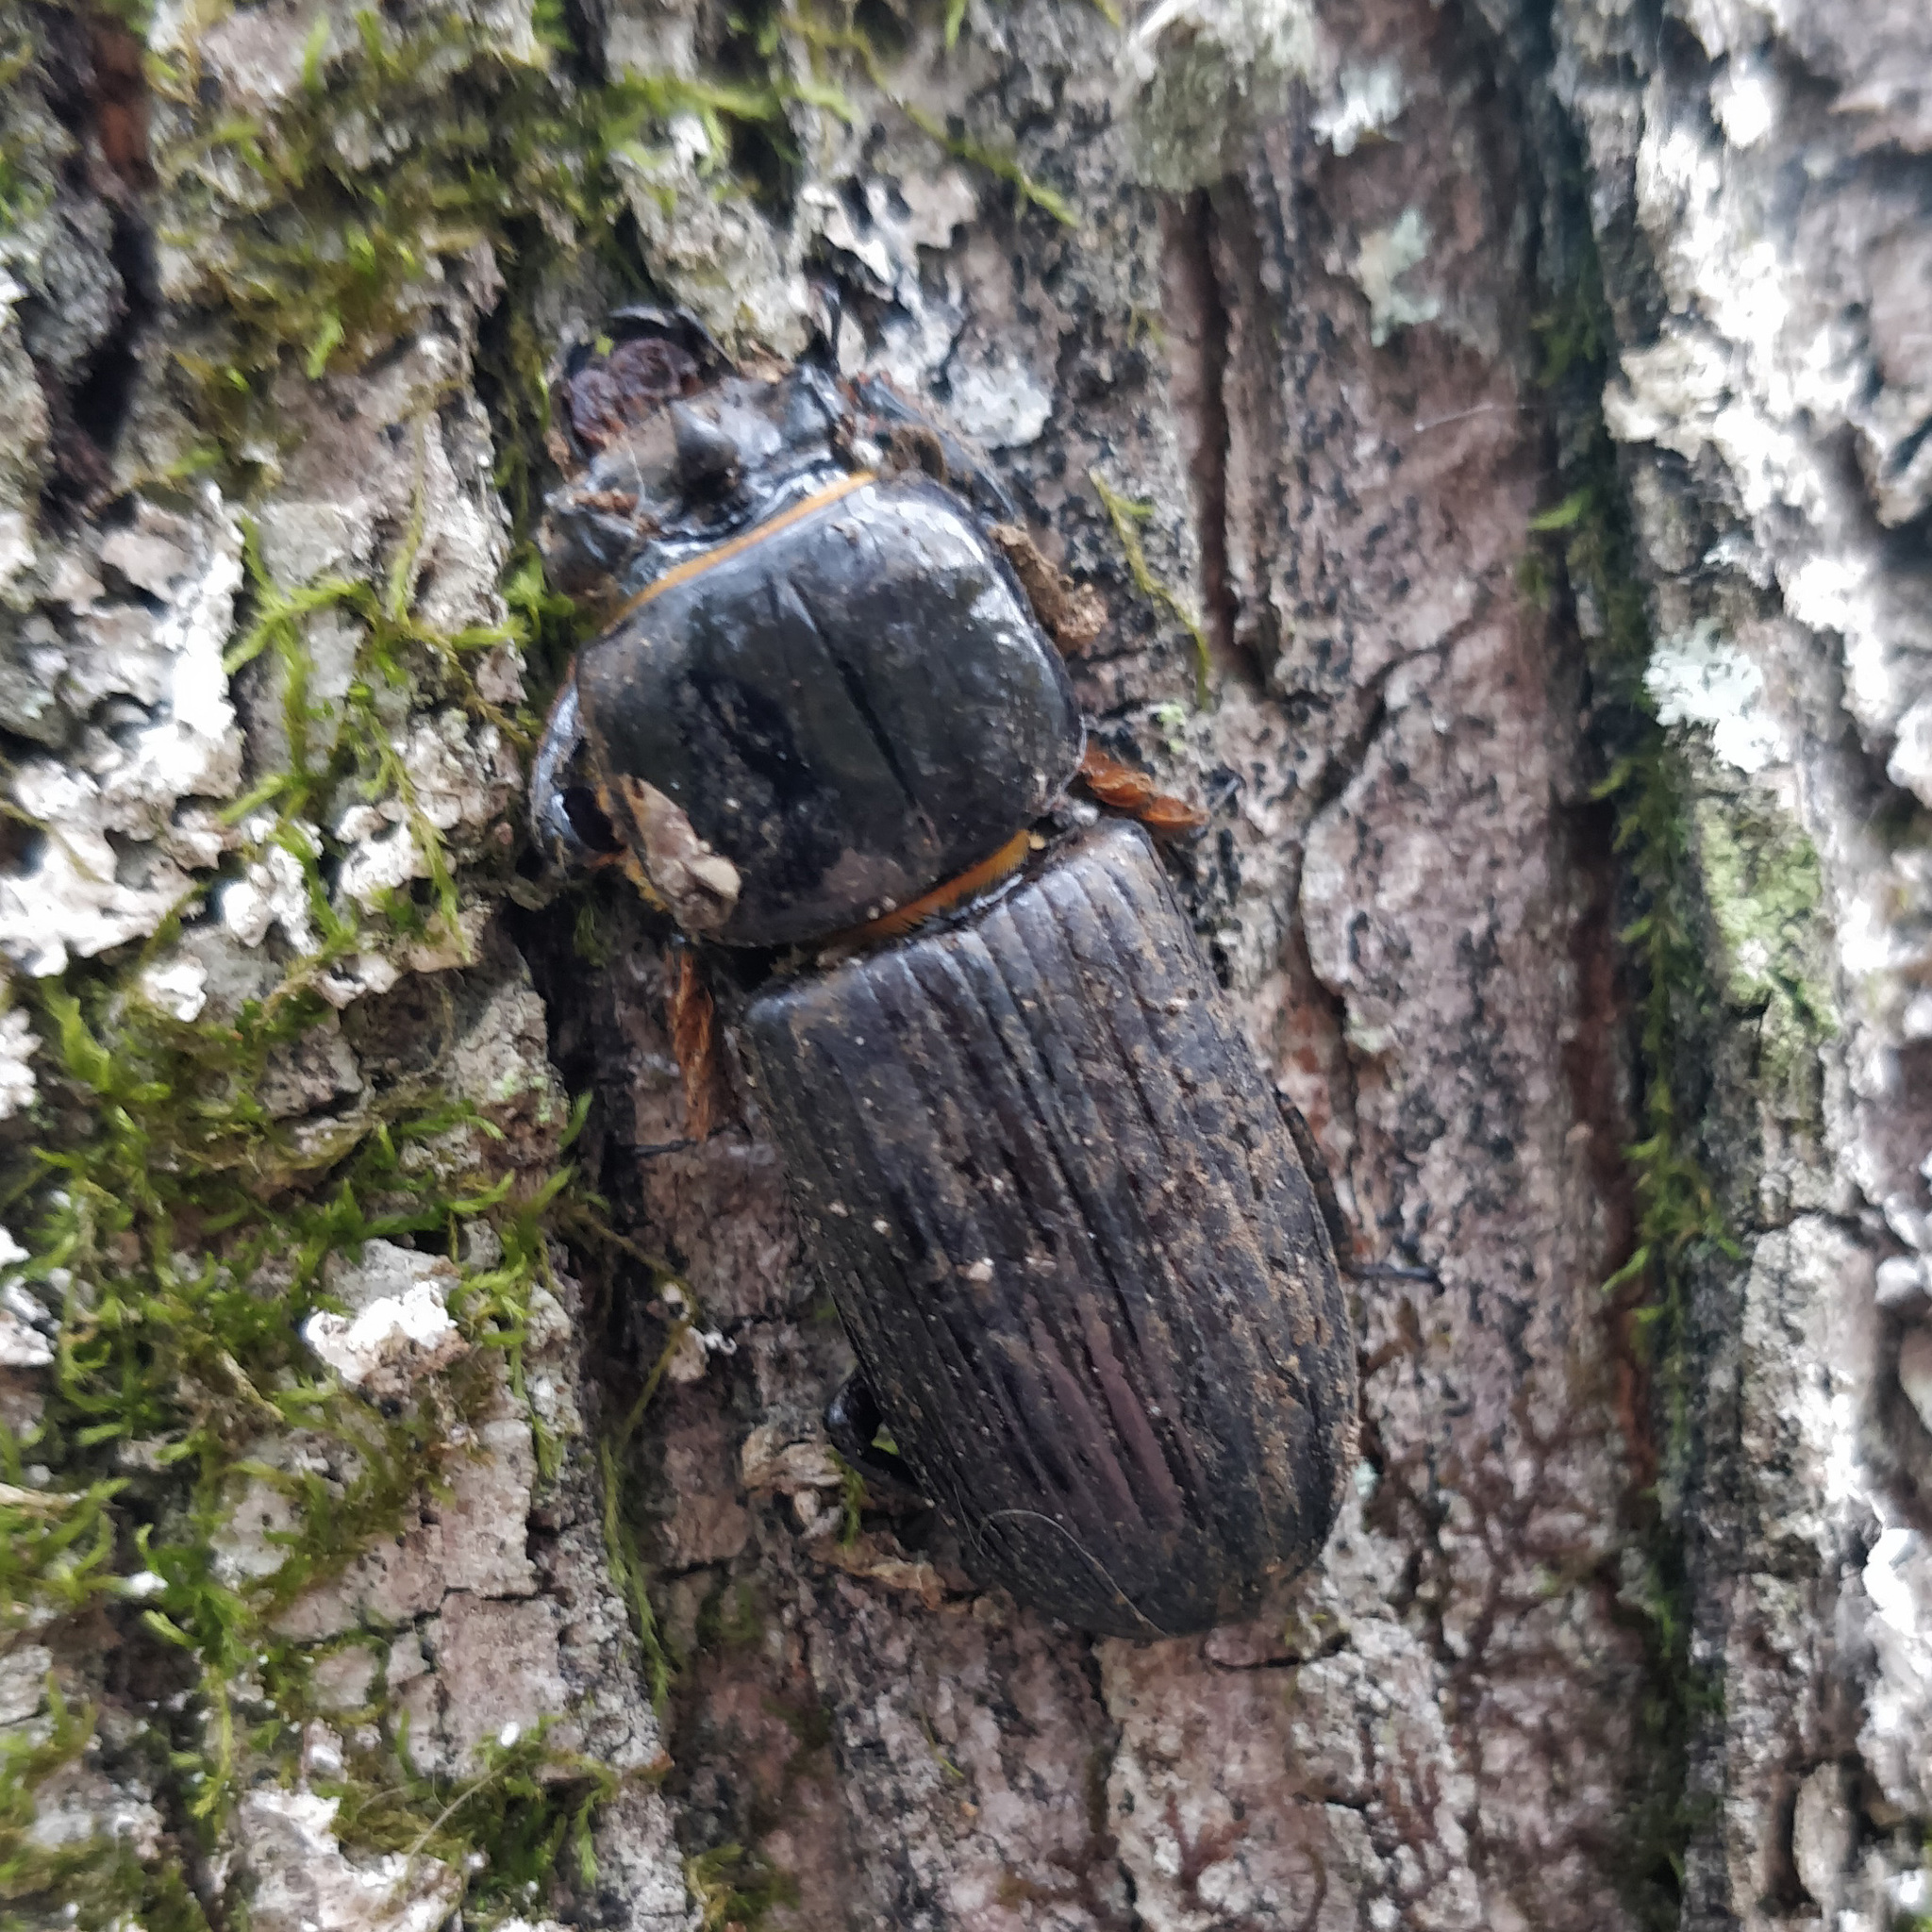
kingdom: Animalia
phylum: Arthropoda
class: Insecta
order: Coleoptera
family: Passalidae
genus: Odontotaenius
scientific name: Odontotaenius disjunctus
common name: Patent leather beetle
